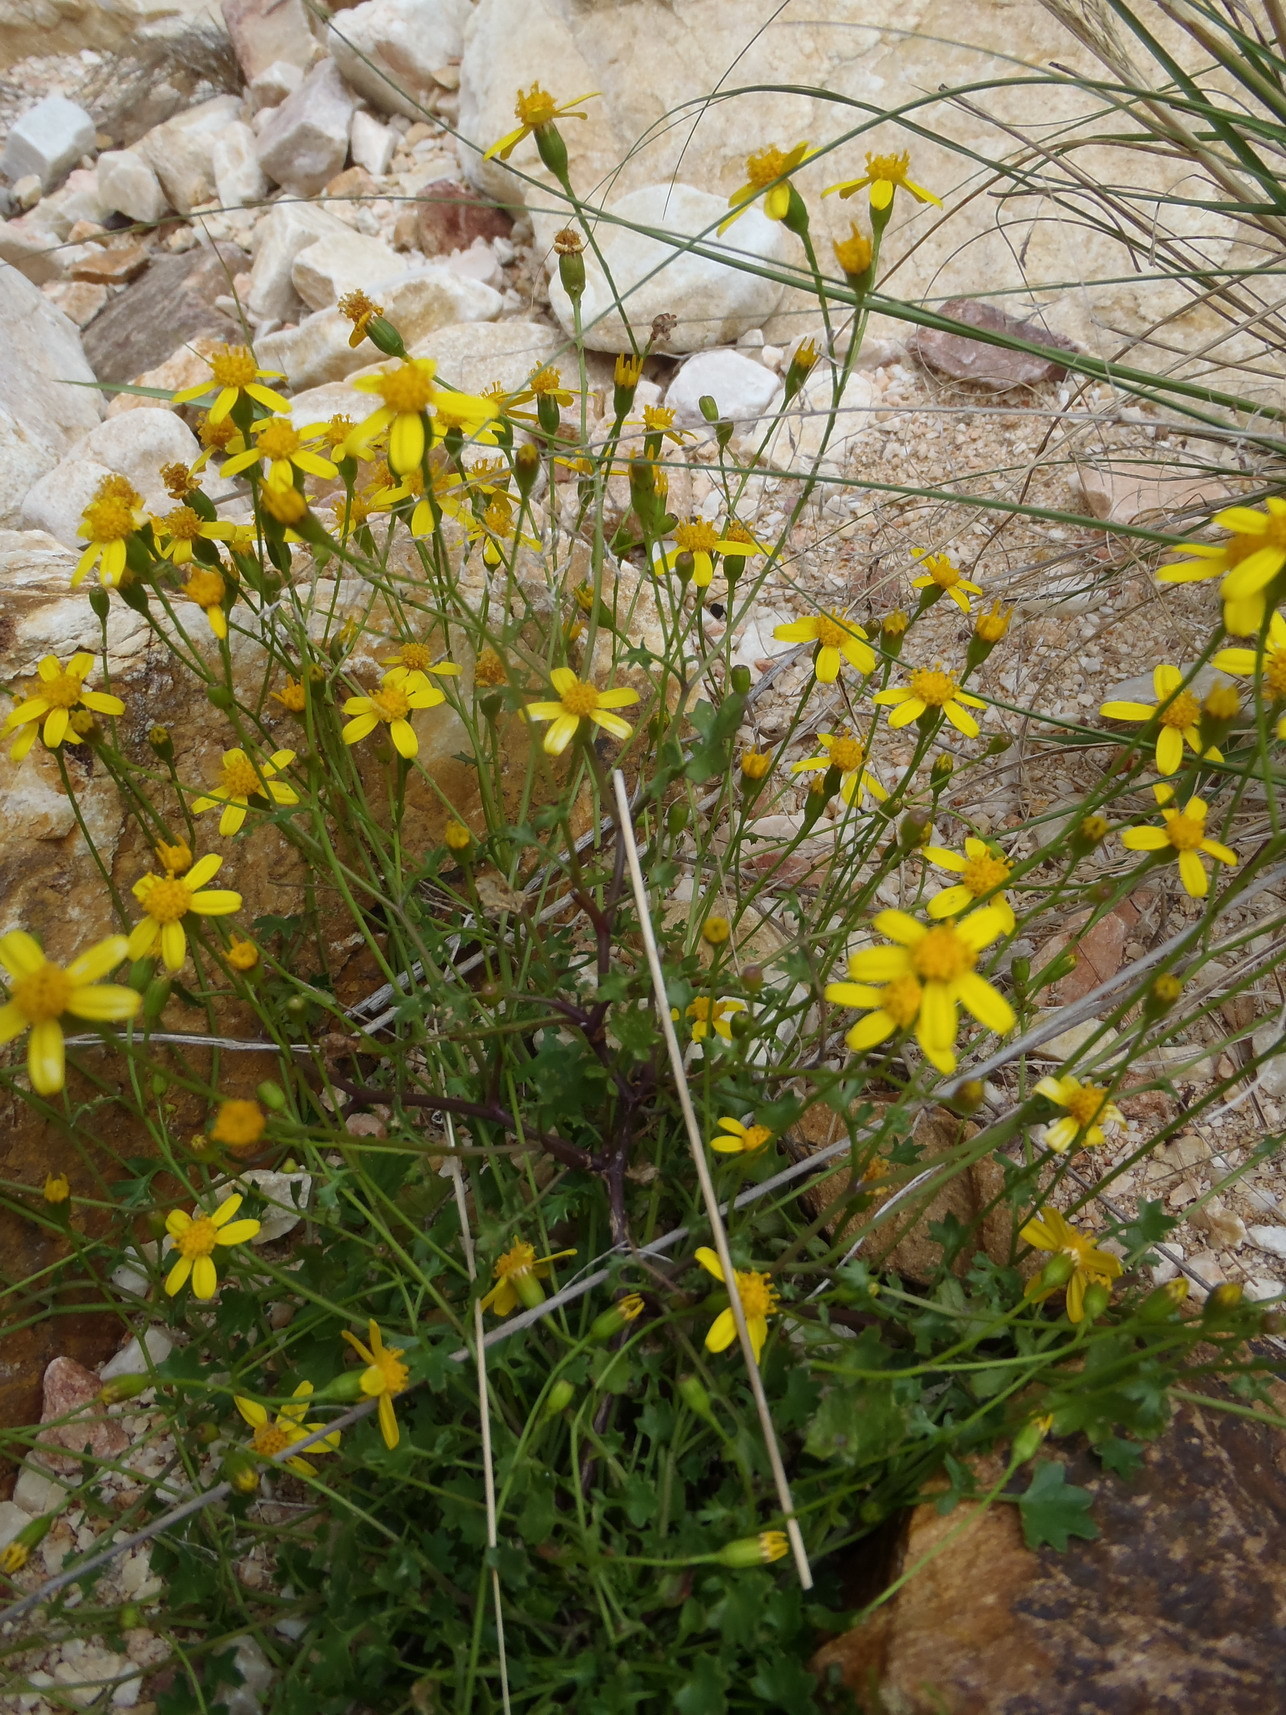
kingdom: Plantae
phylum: Tracheophyta
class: Magnoliopsida
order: Asterales
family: Asteraceae
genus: Cineraria
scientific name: Cineraria lobata
